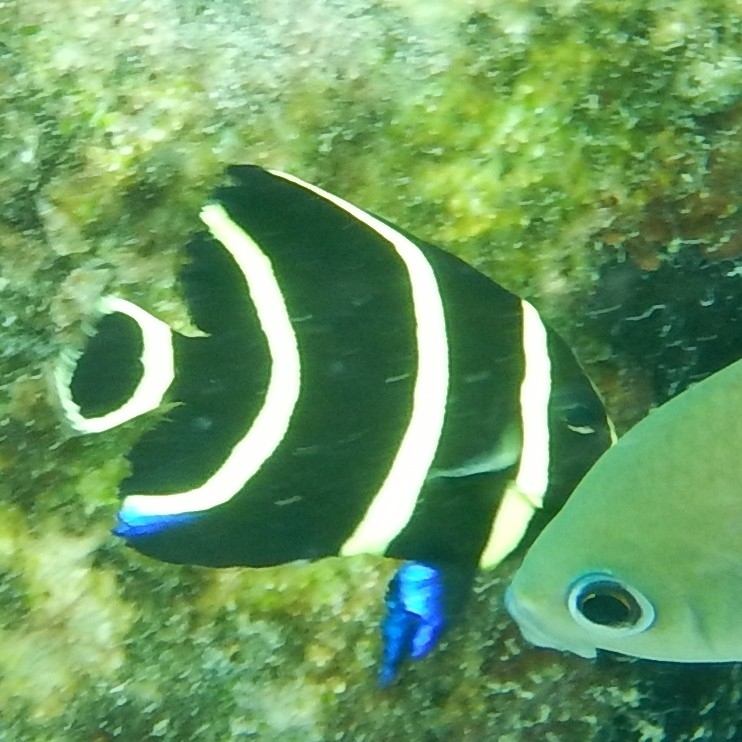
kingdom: Animalia
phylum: Chordata
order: Perciformes
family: Pomacanthidae
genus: Pomacanthus
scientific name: Pomacanthus paru
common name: French angelfish
